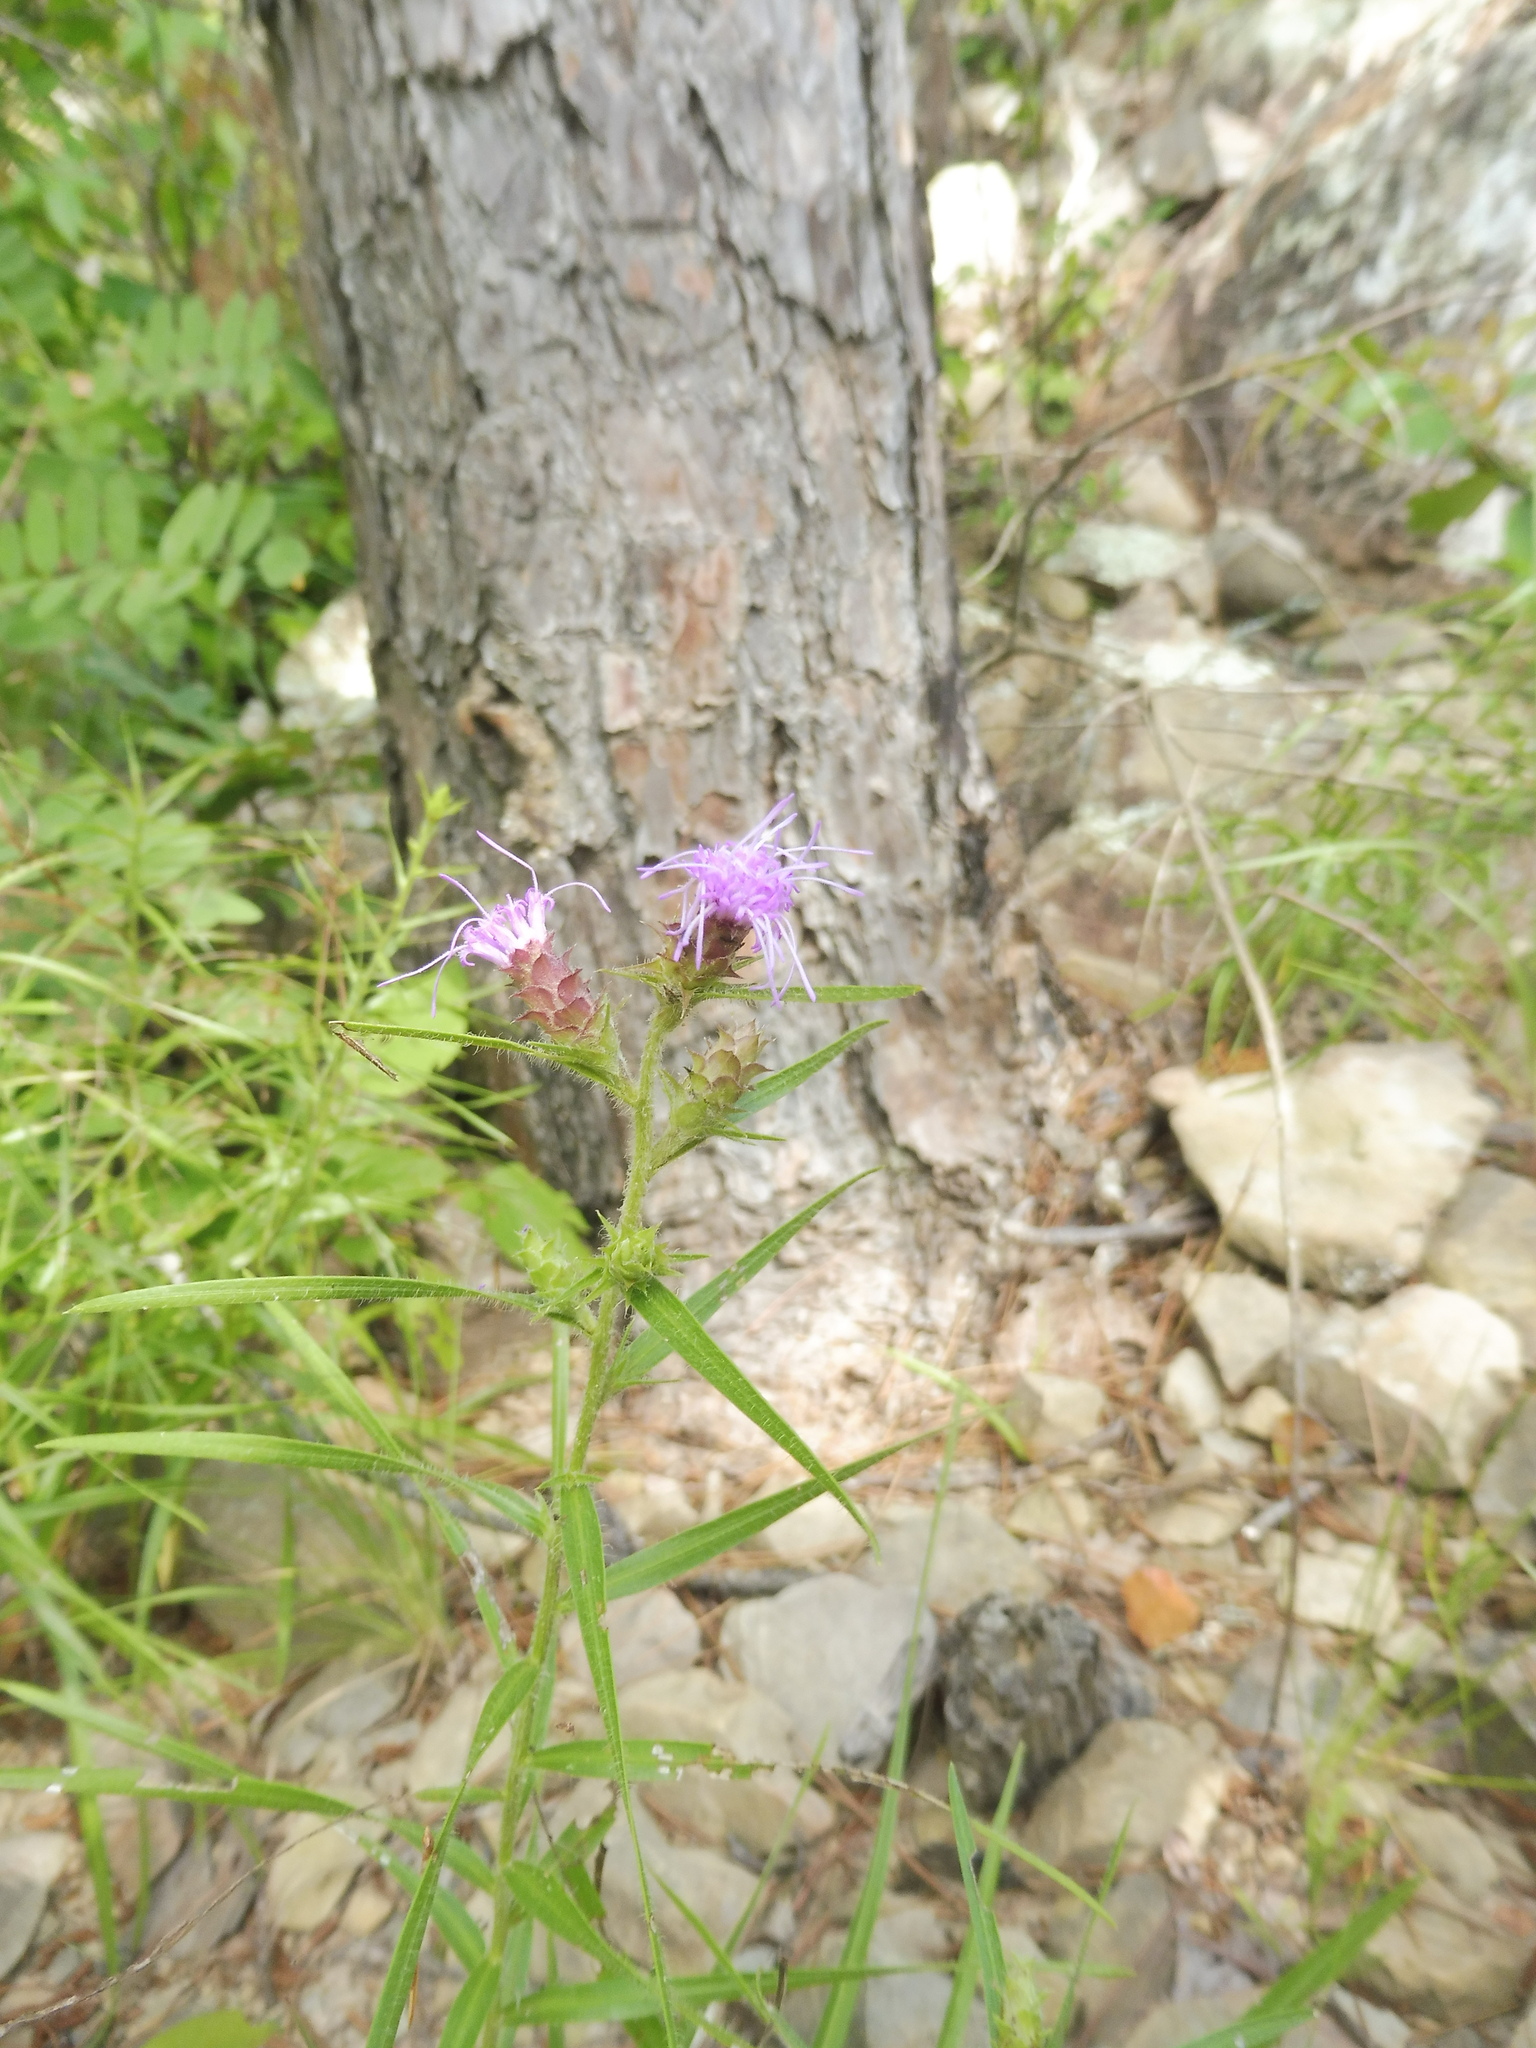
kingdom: Plantae
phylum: Tracheophyta
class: Magnoliopsida
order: Asterales
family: Asteraceae
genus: Liatris
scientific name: Liatris hirsuta
